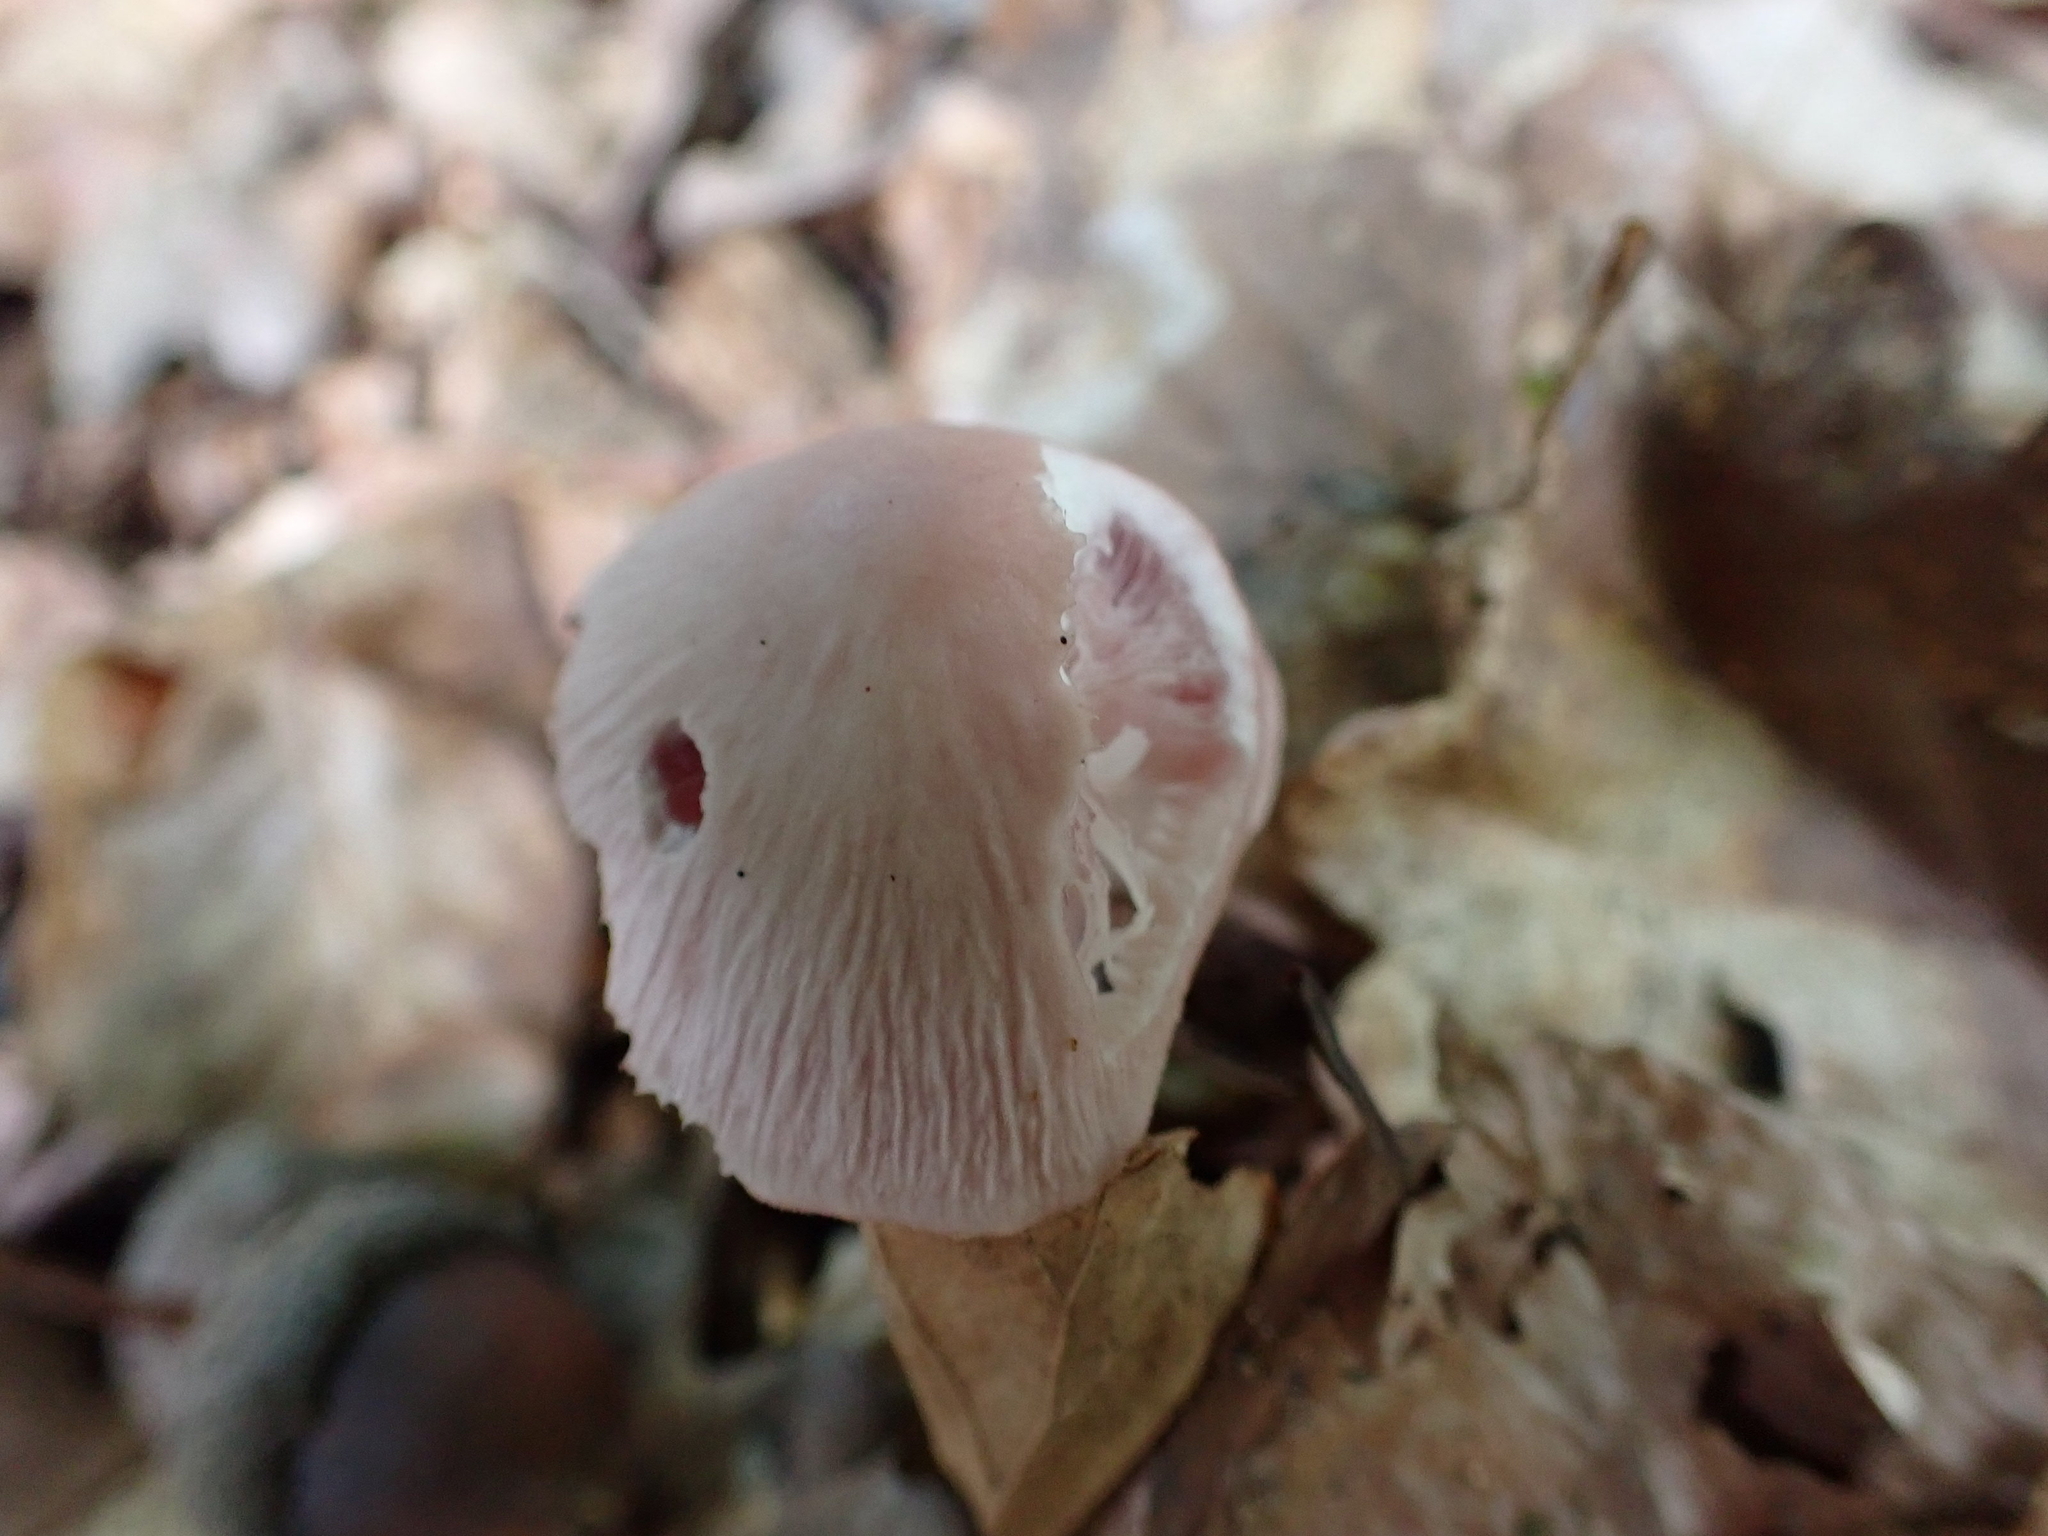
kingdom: Fungi
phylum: Basidiomycota
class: Agaricomycetes
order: Agaricales
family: Mycenaceae
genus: Mycena
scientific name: Mycena rosea
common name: Rosy bonnet
